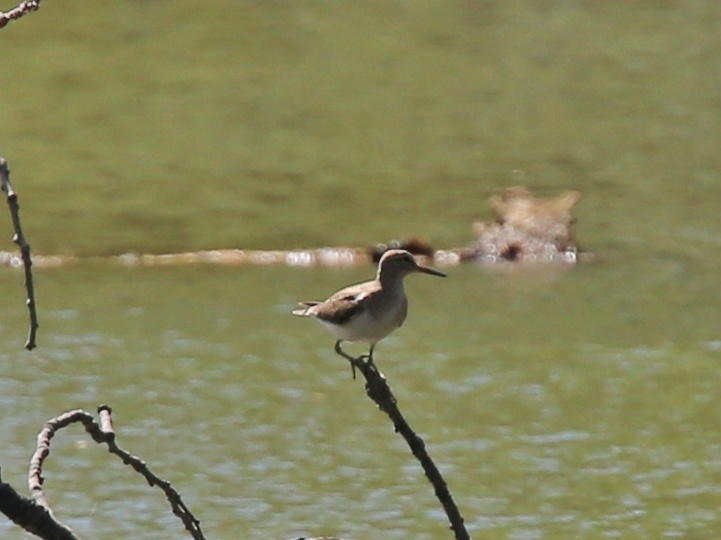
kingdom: Animalia
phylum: Chordata
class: Aves
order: Charadriiformes
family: Scolopacidae
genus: Actitis
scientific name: Actitis hypoleucos
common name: Common sandpiper
